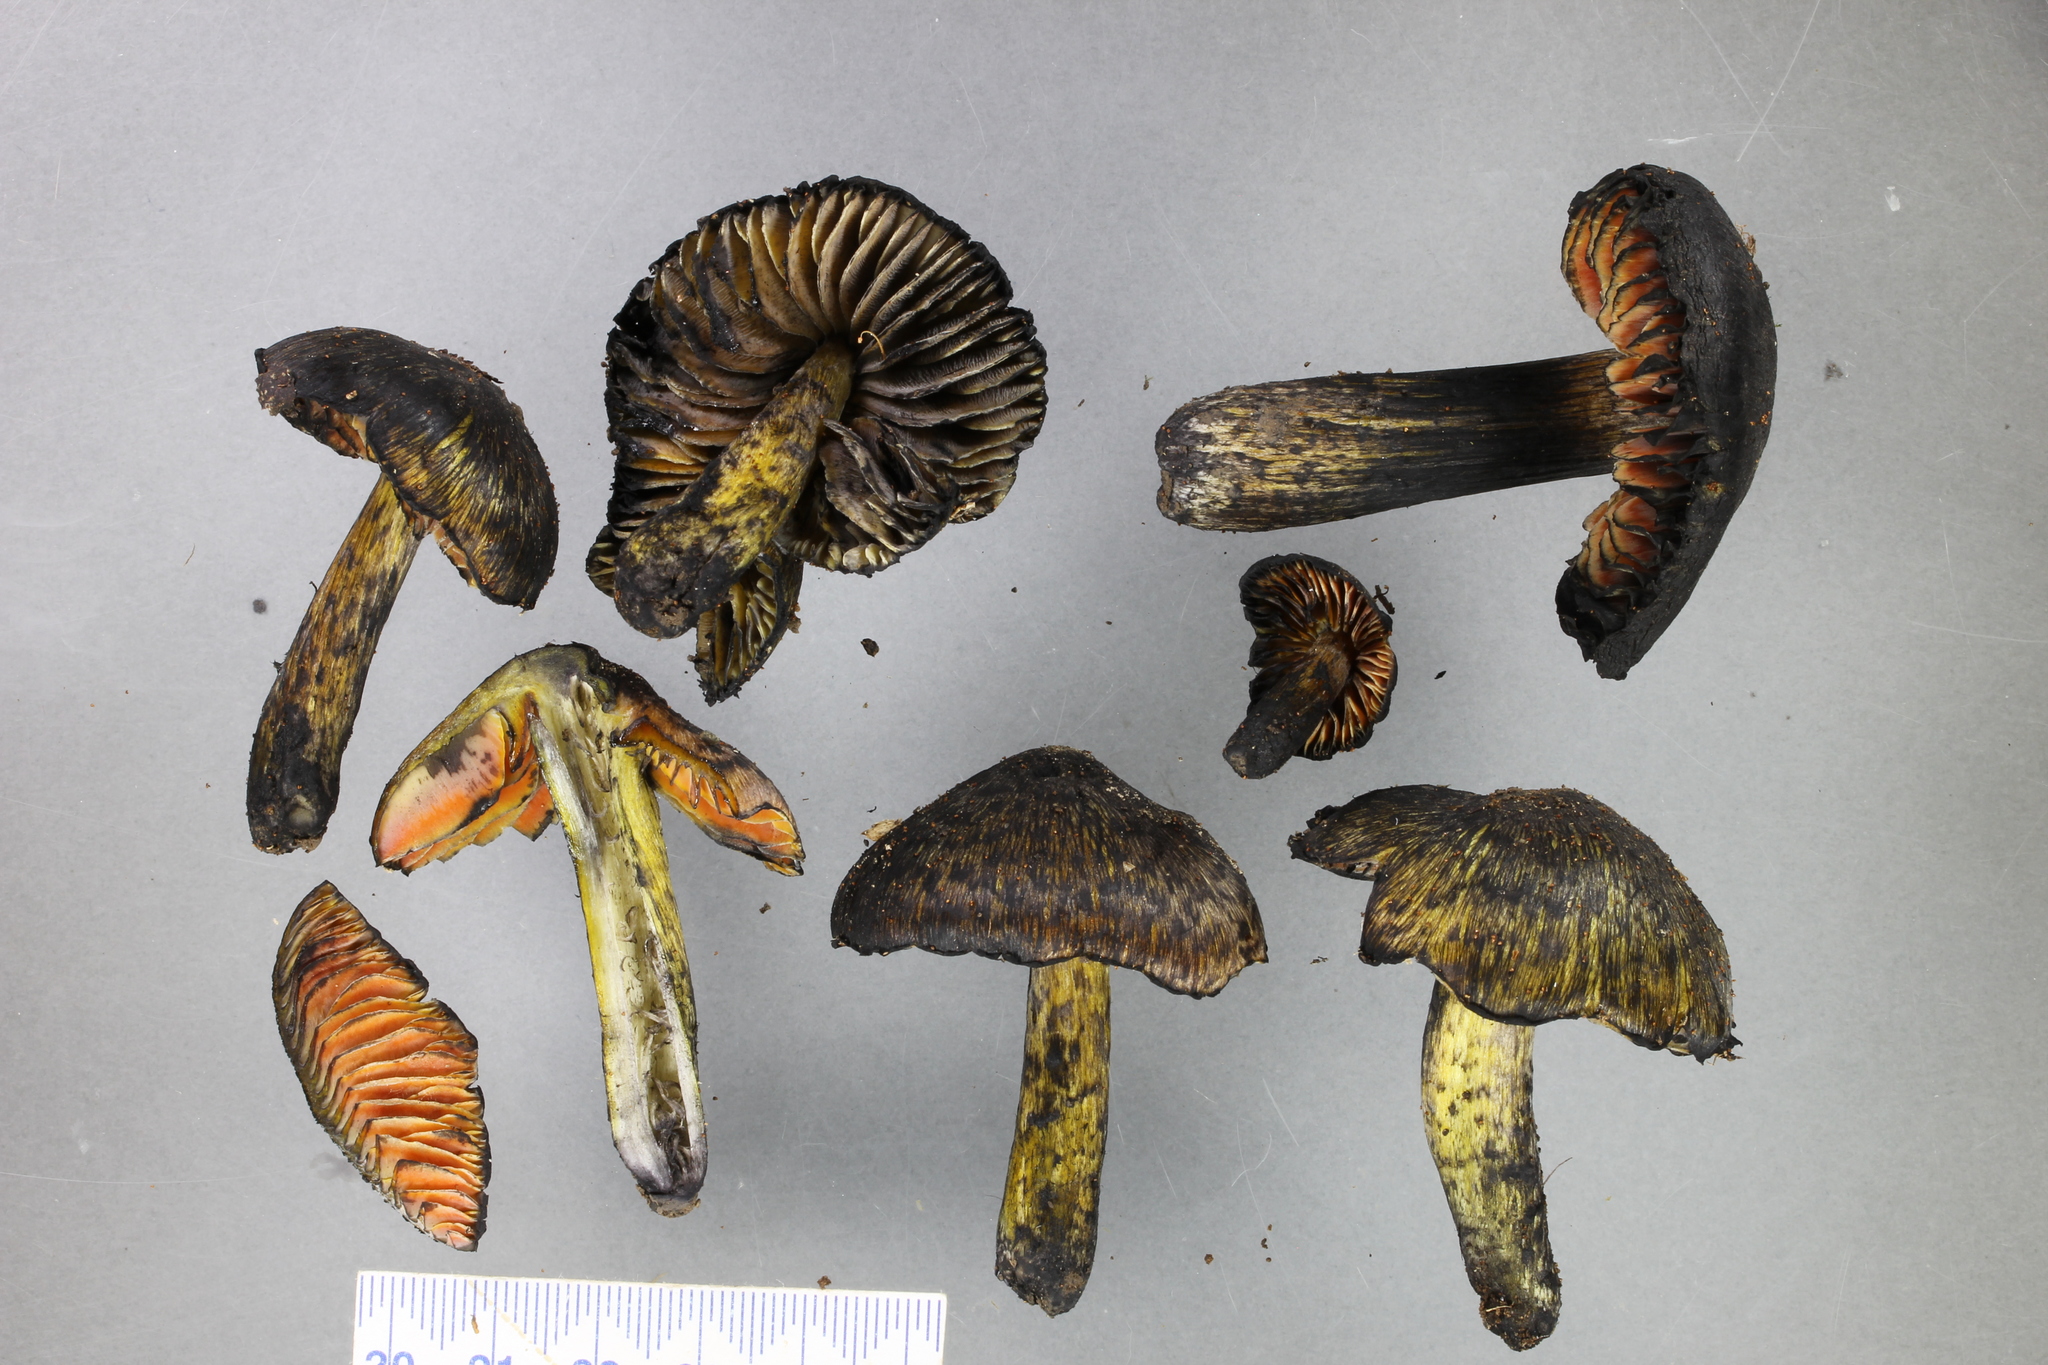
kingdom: Fungi
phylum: Basidiomycota
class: Agaricomycetes
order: Agaricales
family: Hygrophoraceae
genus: Hygrocybe
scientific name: Hygrocybe astatogala
